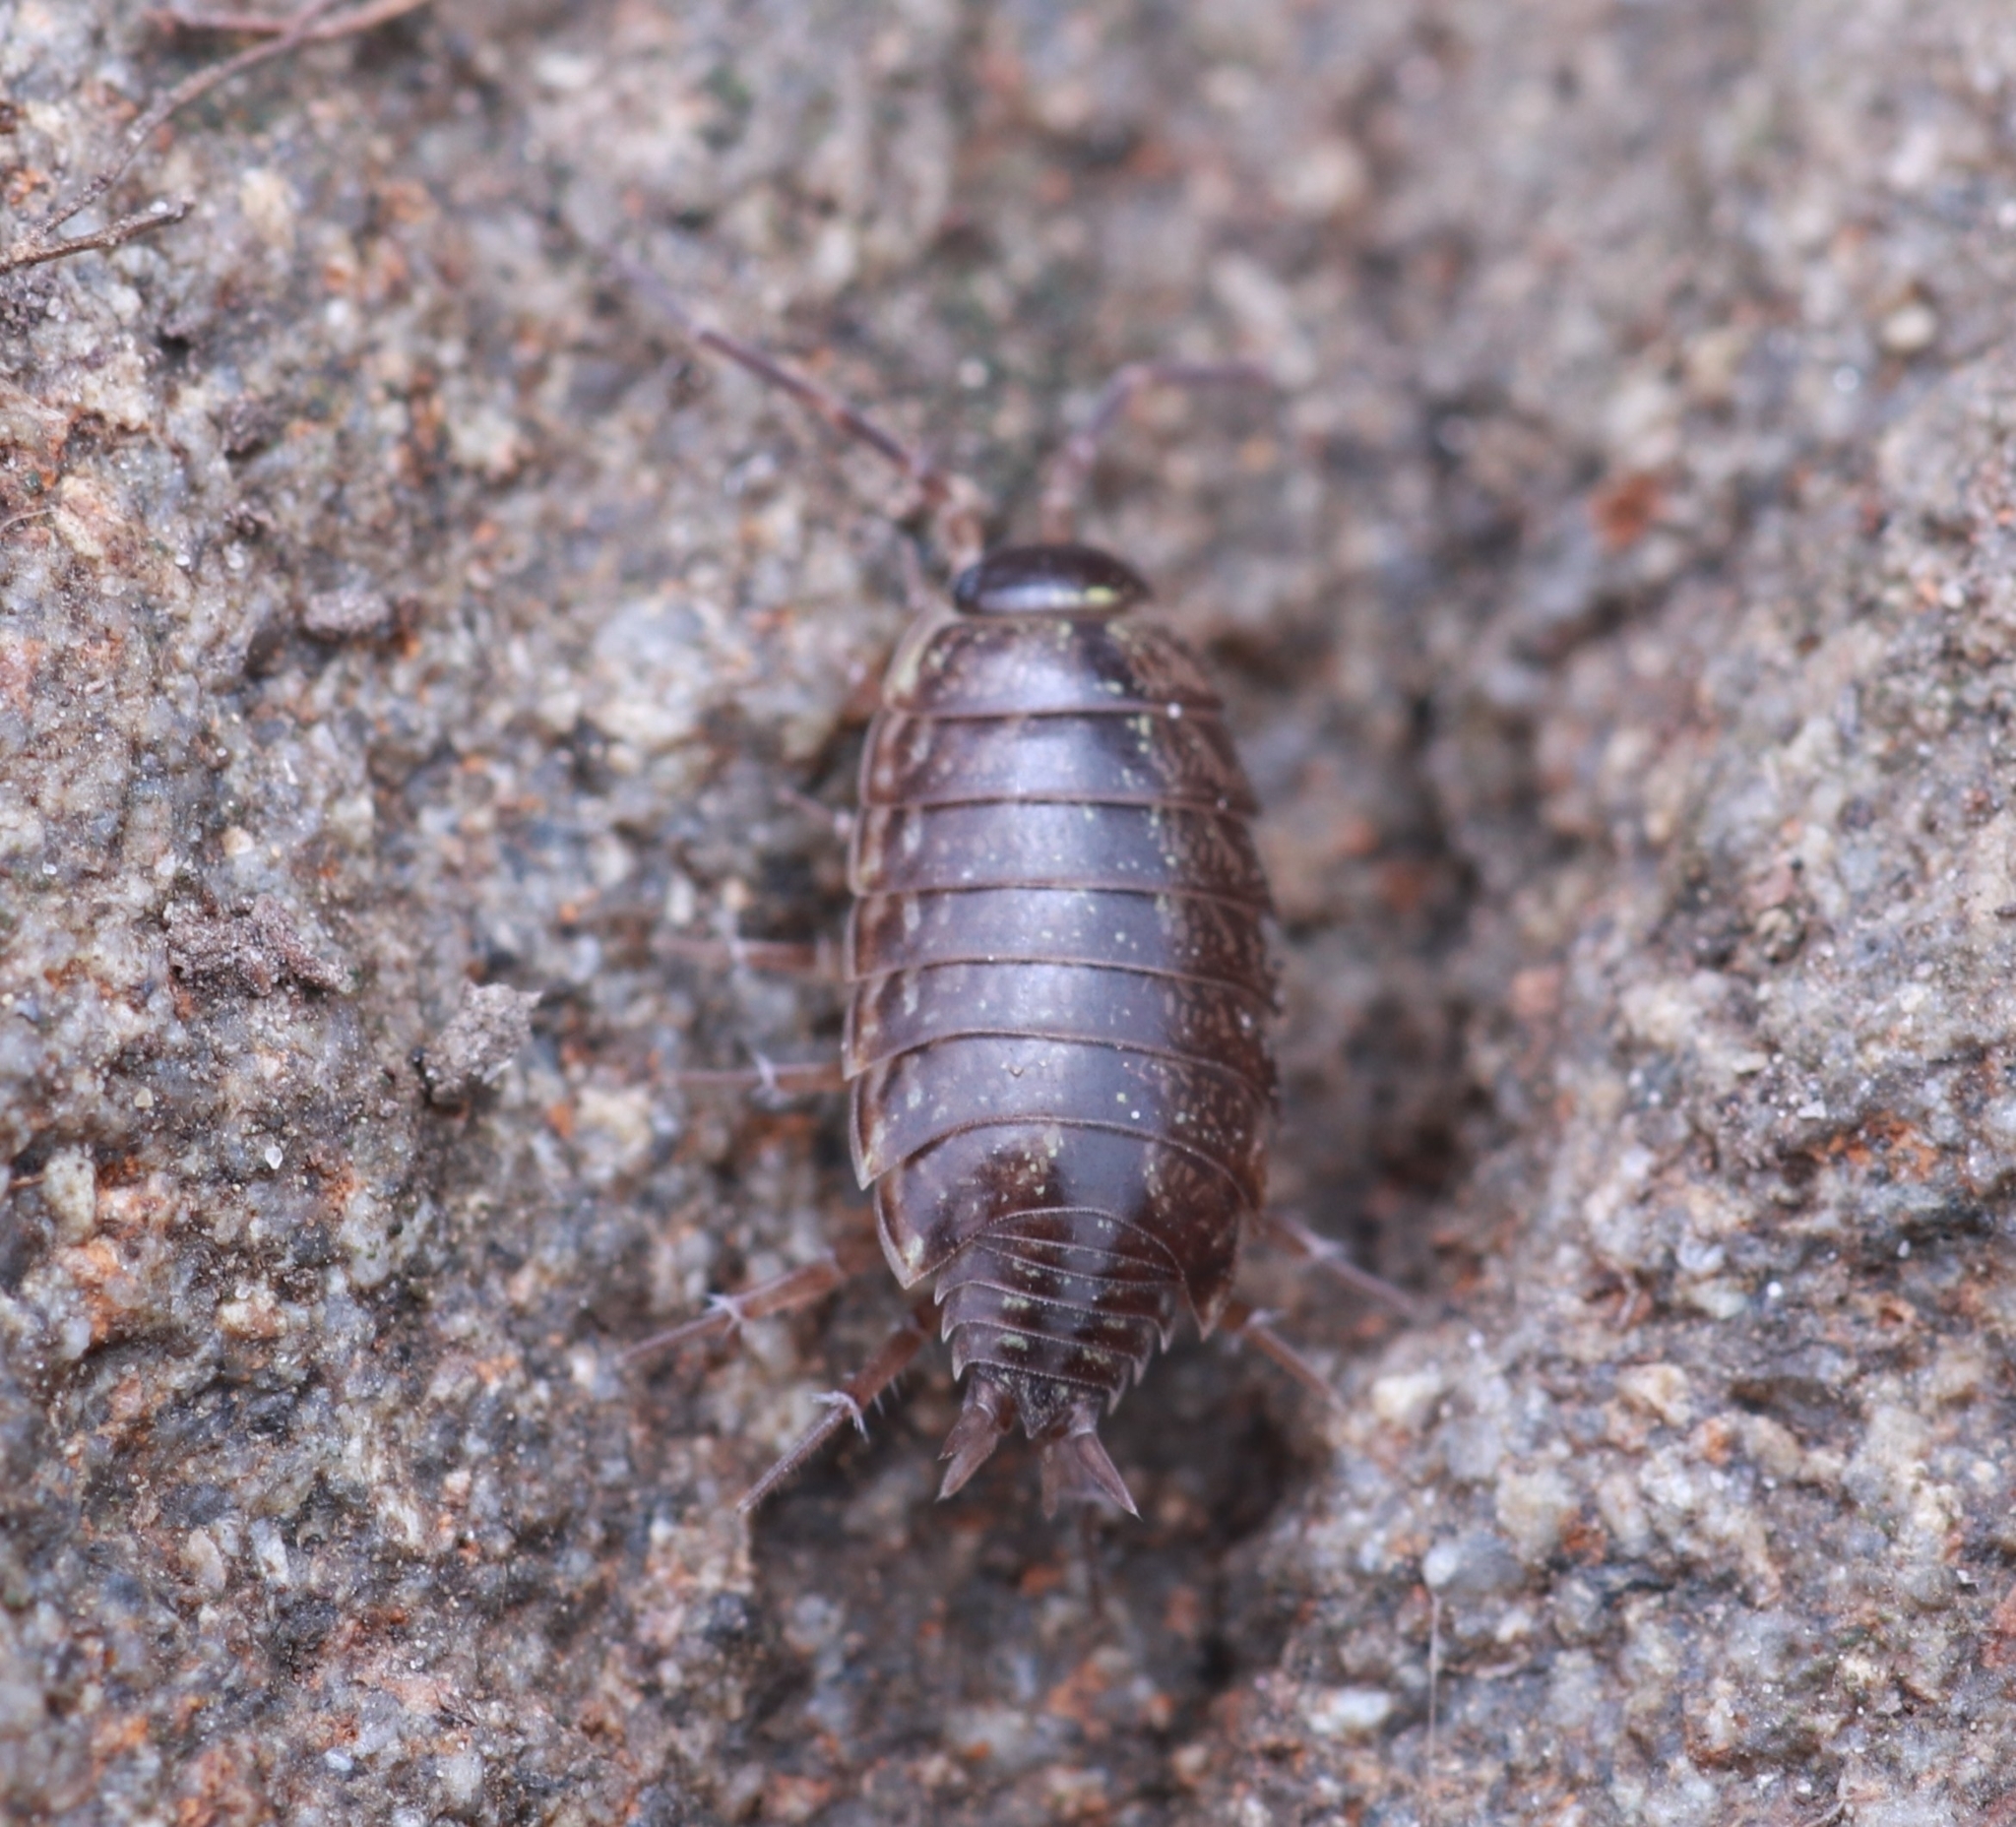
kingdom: Animalia
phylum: Arthropoda
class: Malacostraca
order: Isopoda
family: Philosciidae
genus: Philoscia
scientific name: Philoscia muscorum
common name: Common striped woodlouse
